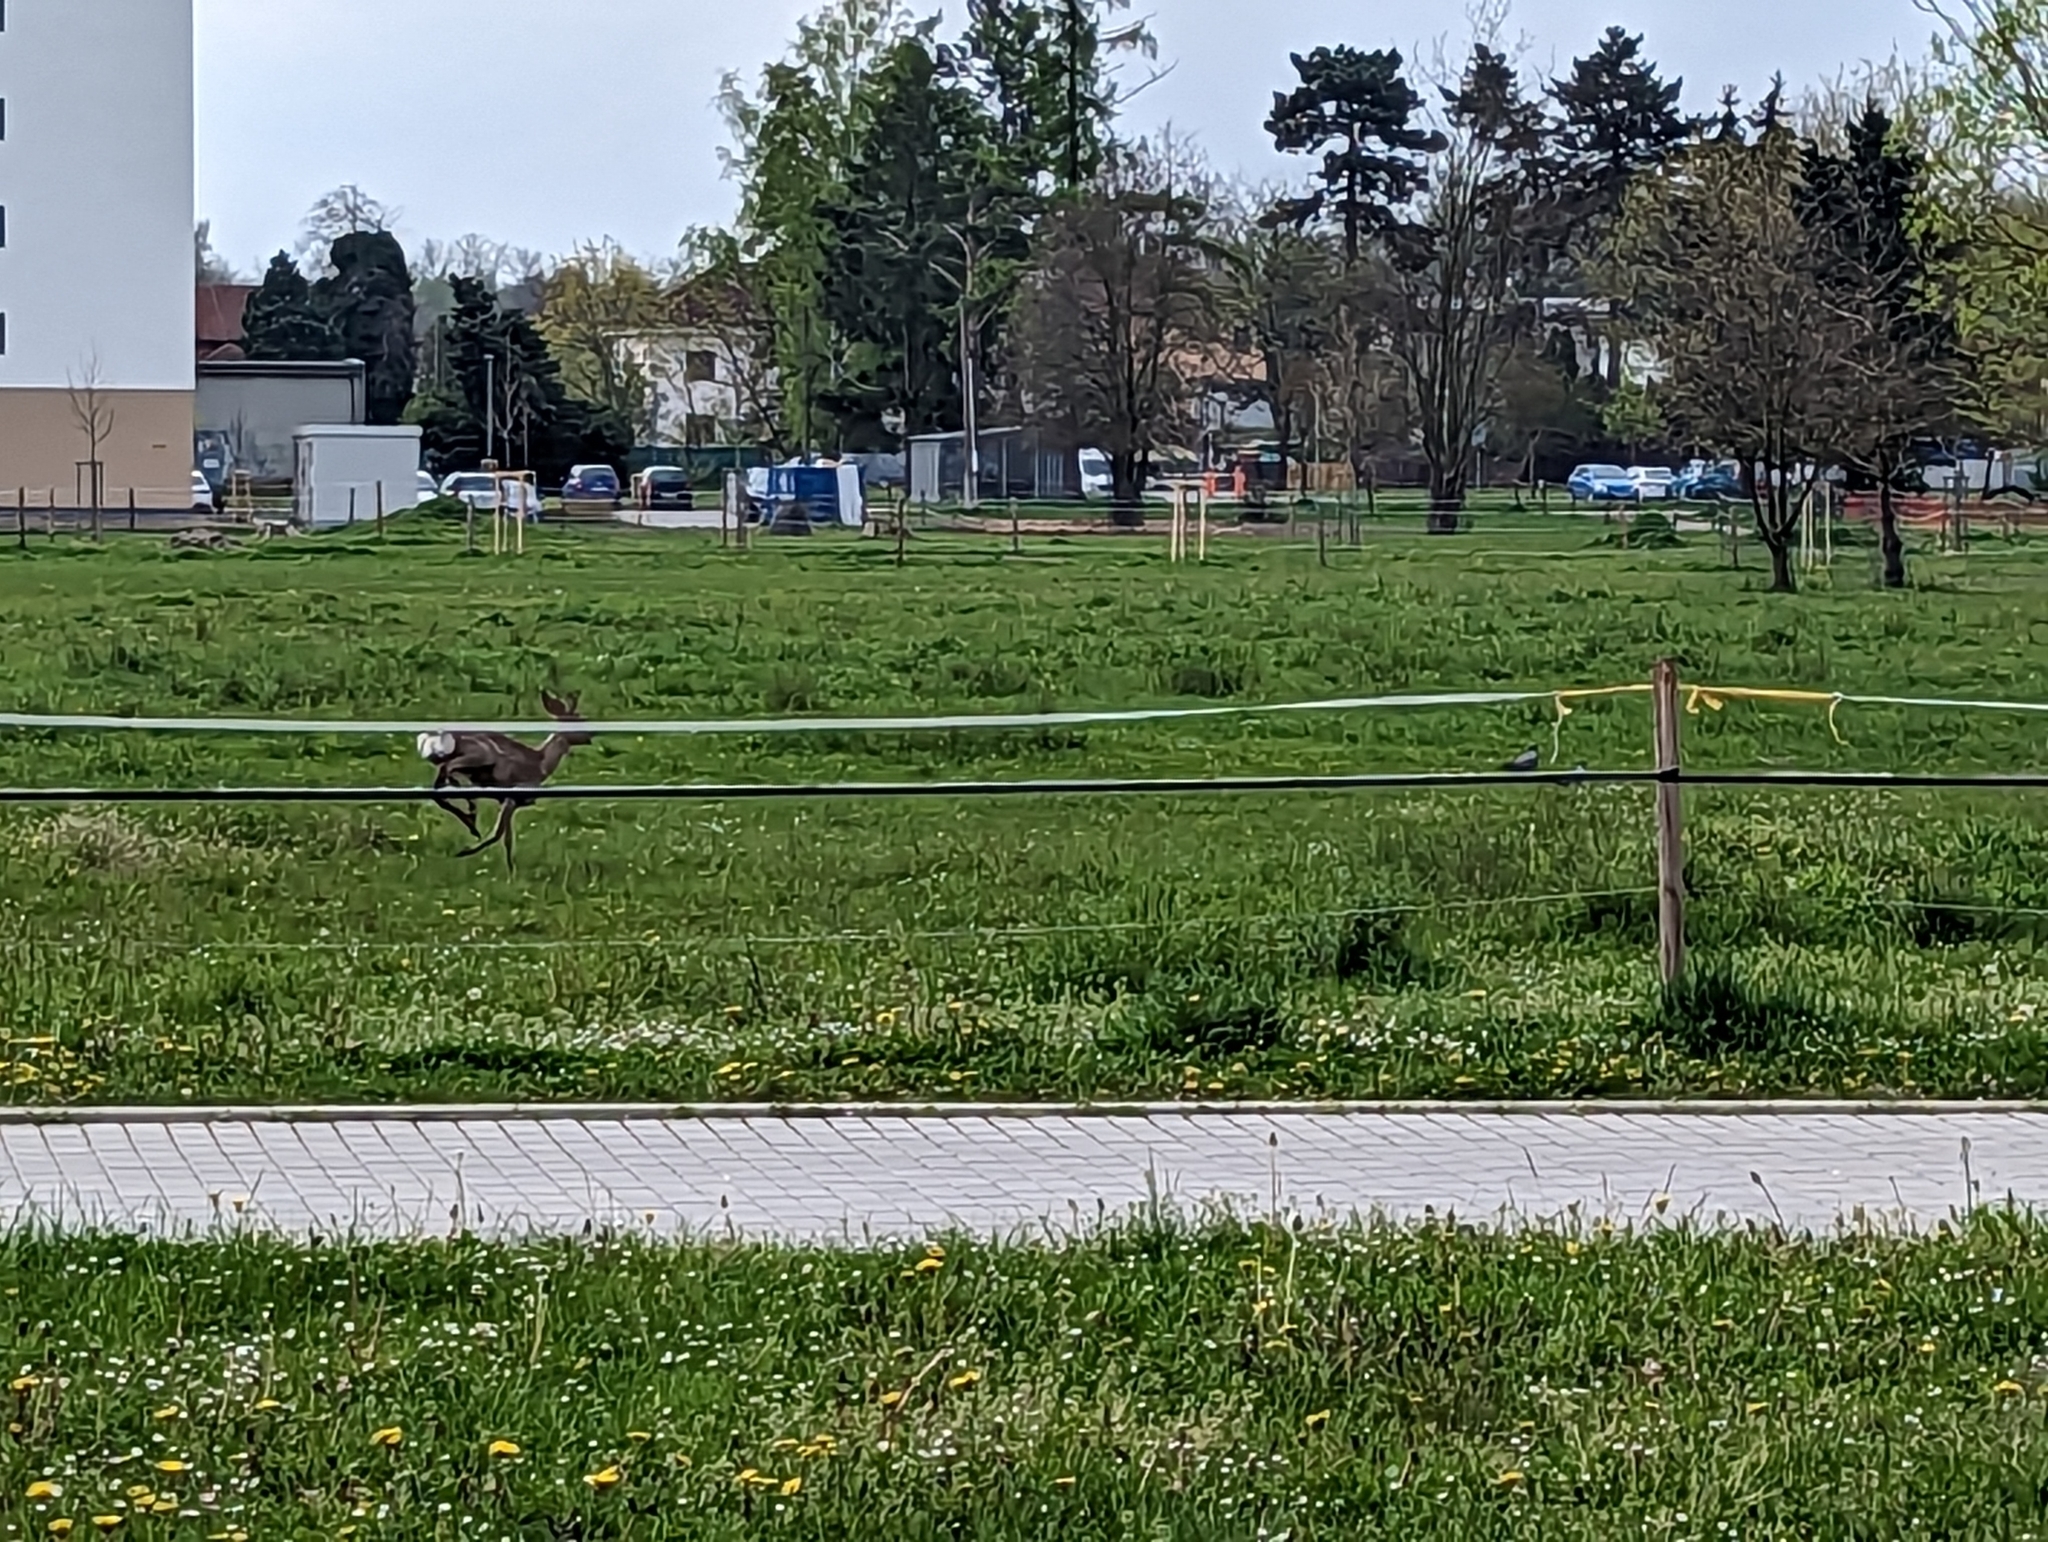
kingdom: Animalia
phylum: Chordata
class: Mammalia
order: Artiodactyla
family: Cervidae
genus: Capreolus
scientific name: Capreolus capreolus
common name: Western roe deer
